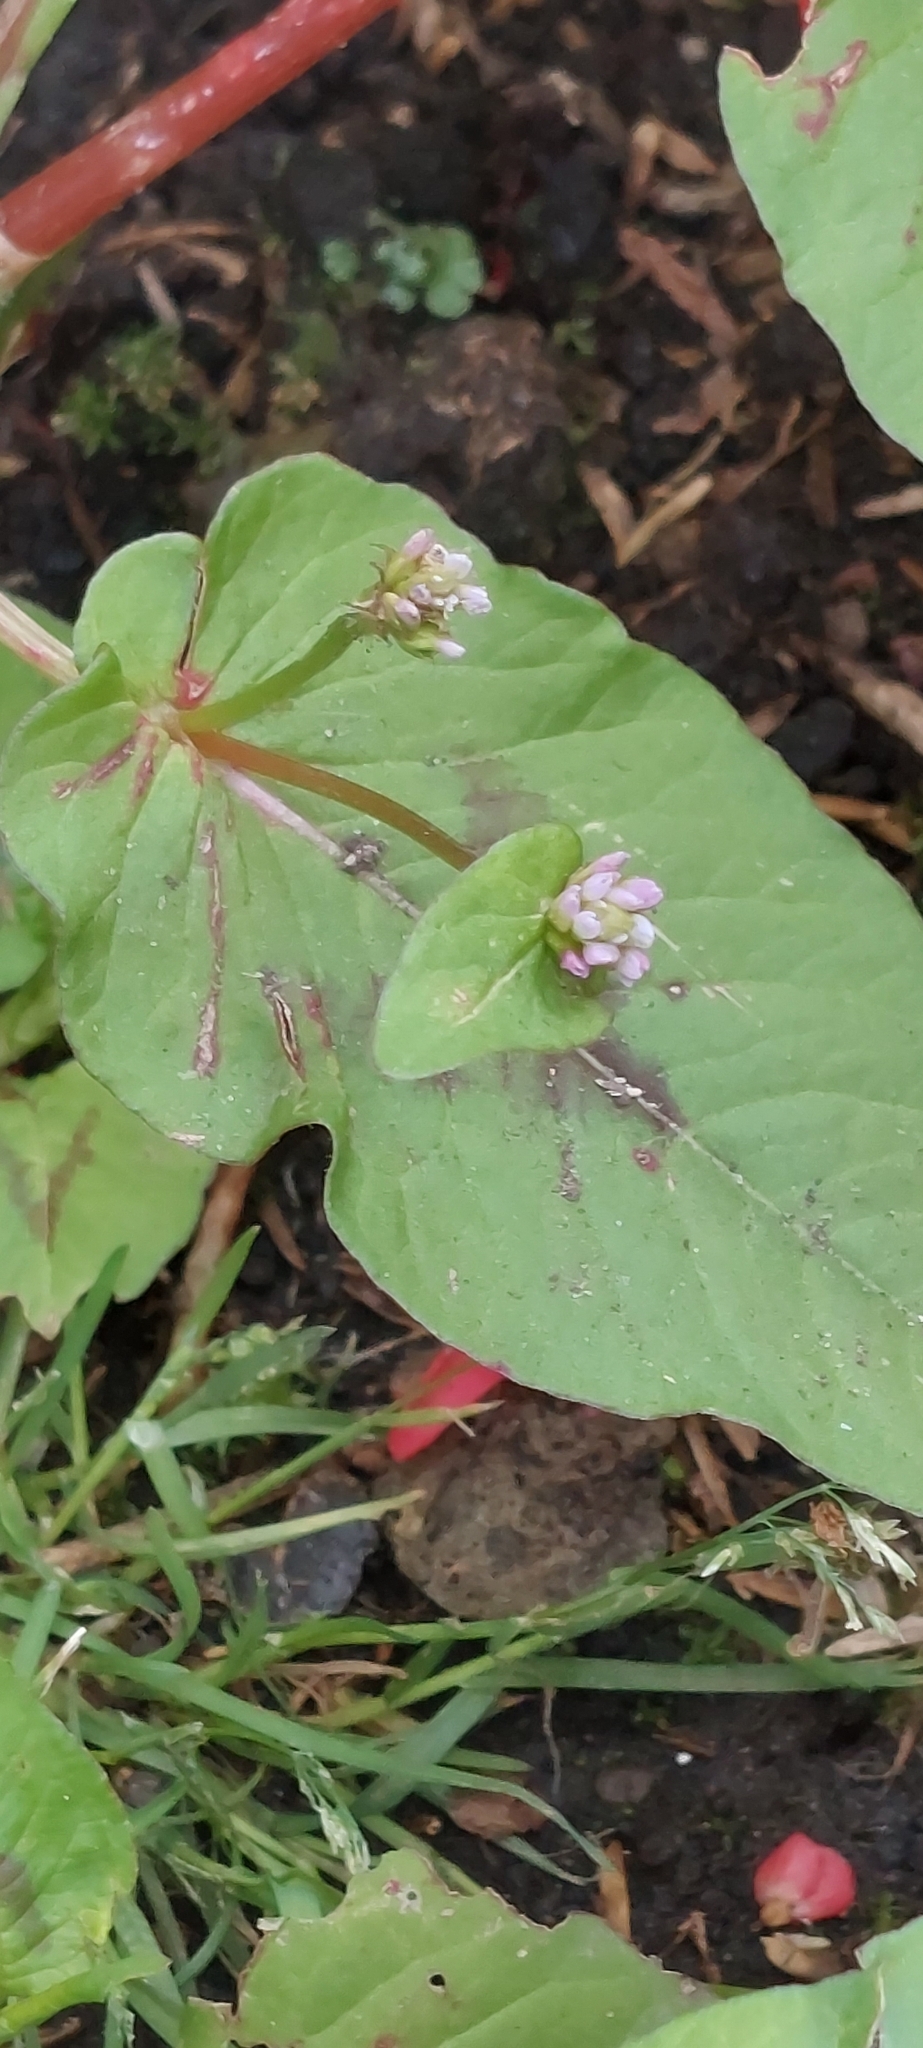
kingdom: Plantae
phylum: Tracheophyta
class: Magnoliopsida
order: Caryophyllales
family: Polygonaceae
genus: Persicaria
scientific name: Persicaria nepalensis
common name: Nepal persicaria
